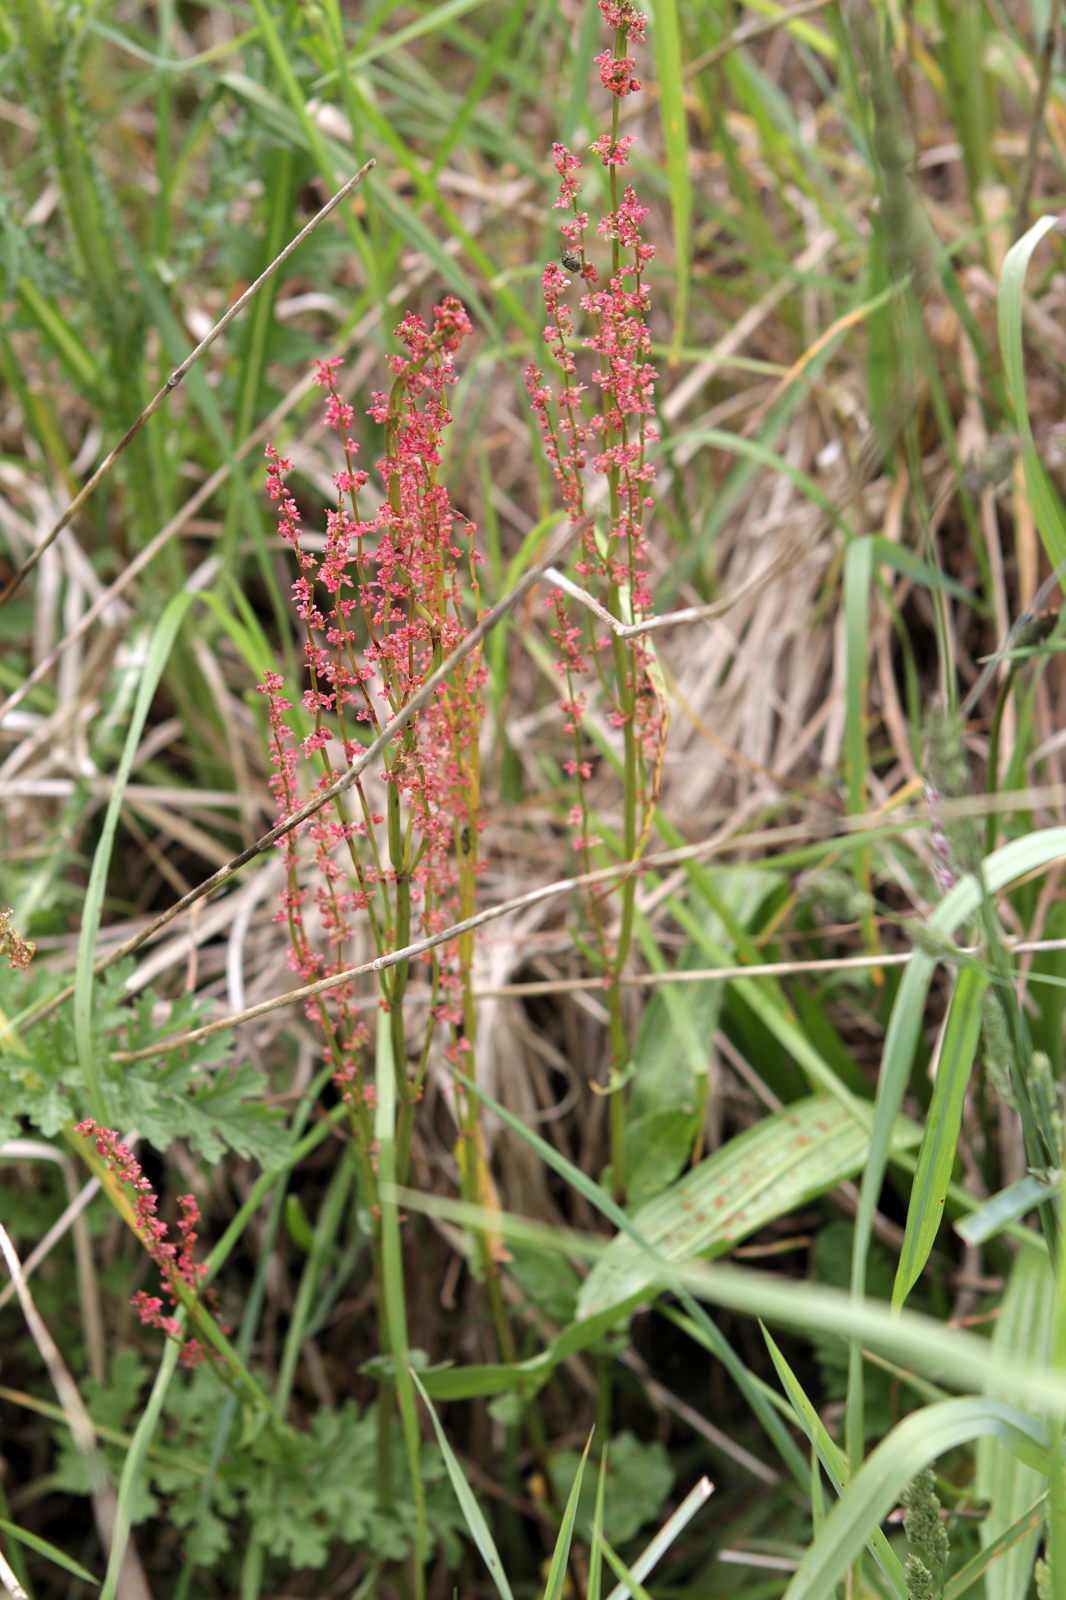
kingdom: Plantae
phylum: Tracheophyta
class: Magnoliopsida
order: Caryophyllales
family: Polygonaceae
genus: Rumex
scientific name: Rumex acetosa
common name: Garden sorrel
